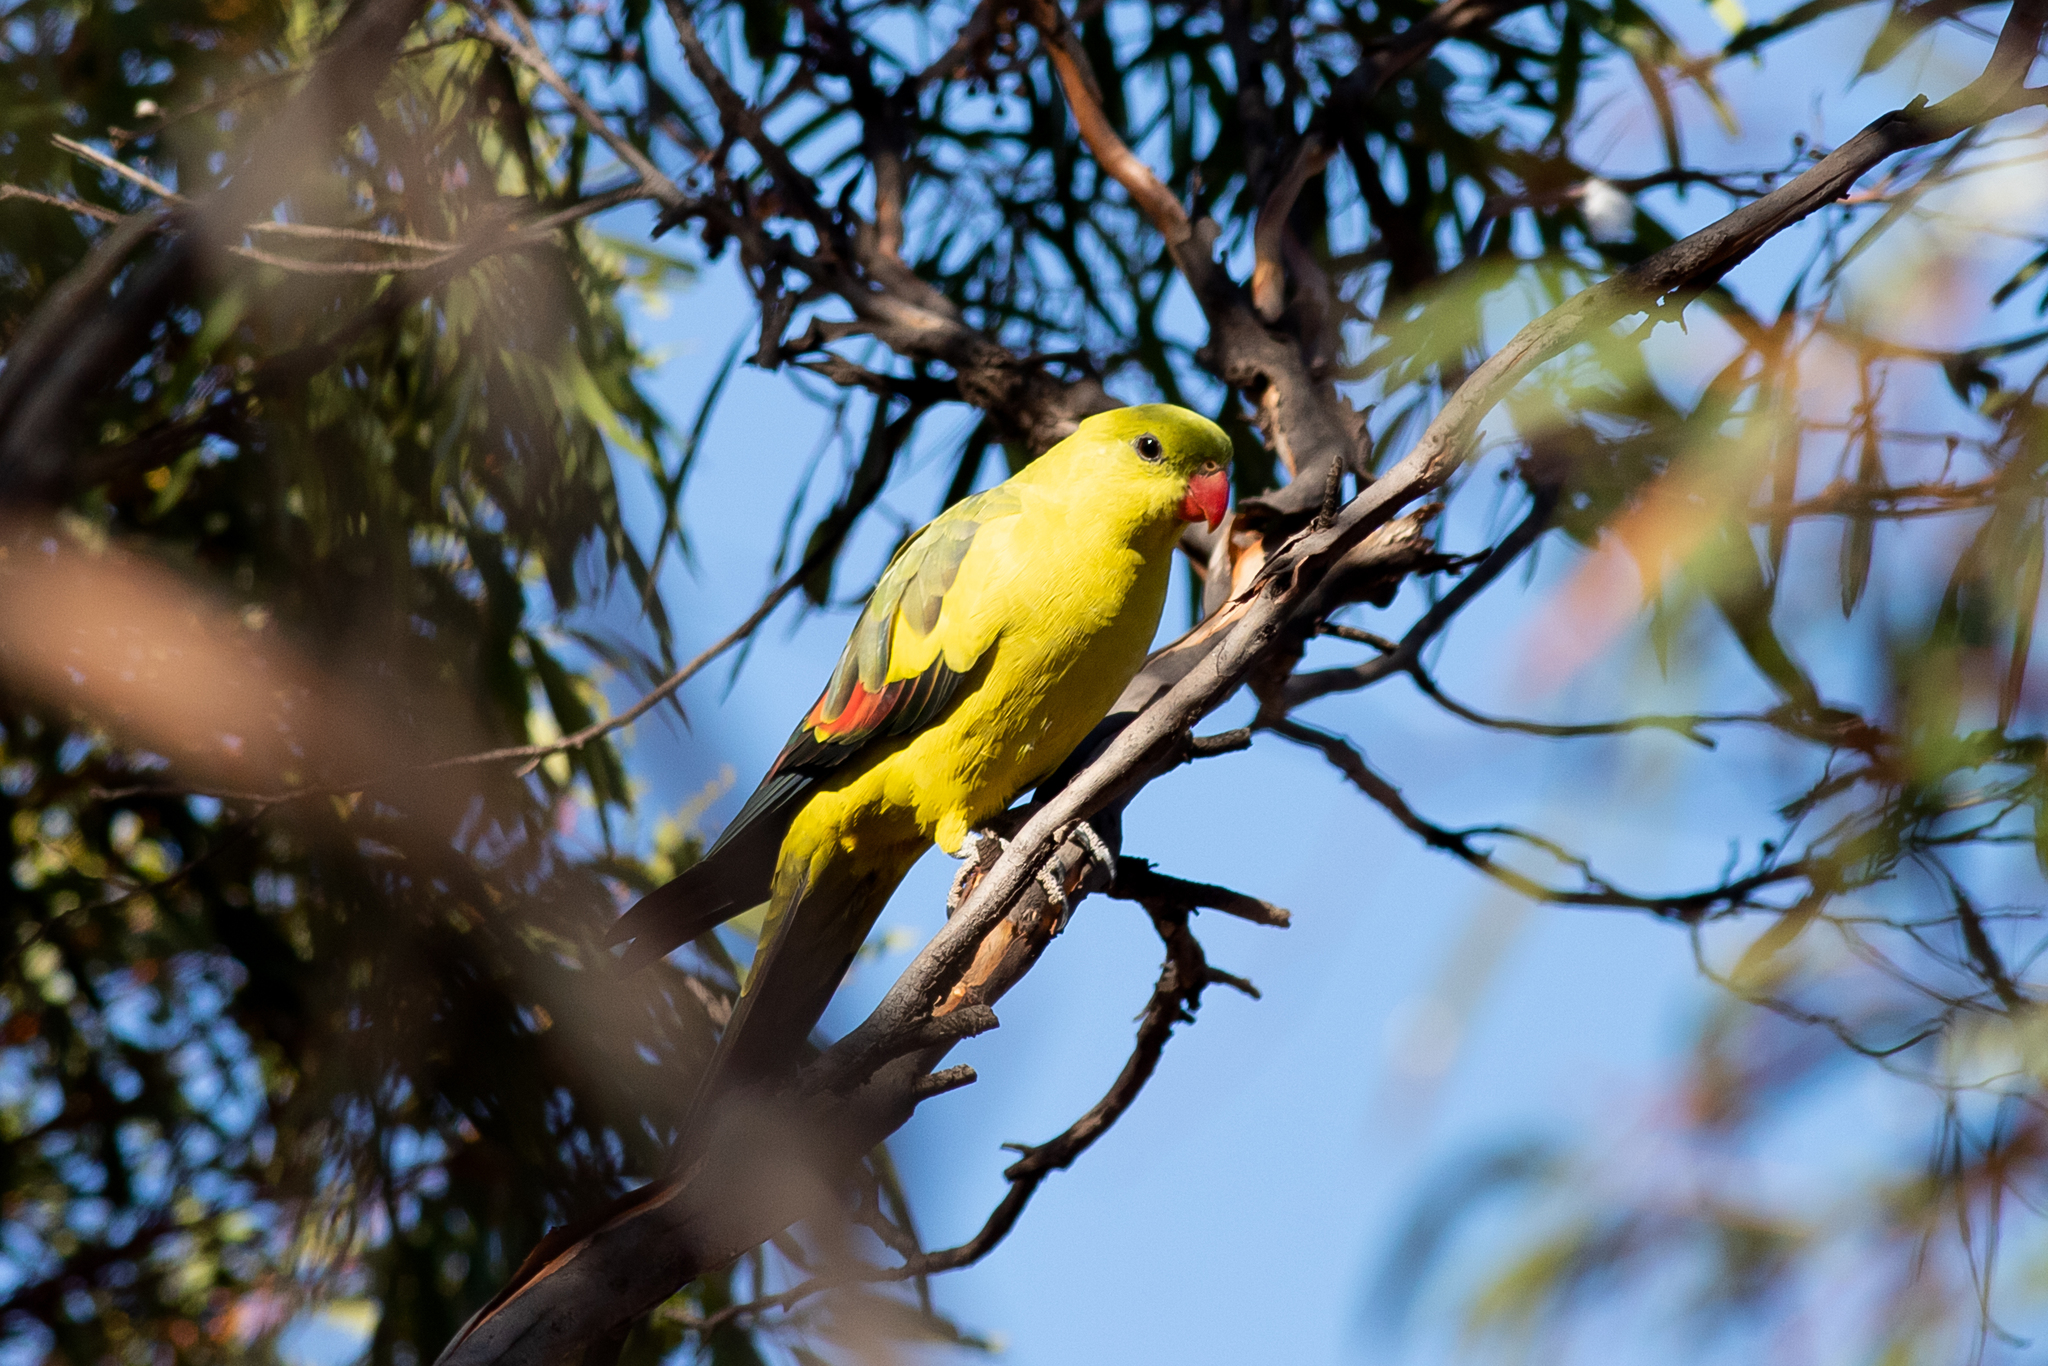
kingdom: Animalia
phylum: Chordata
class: Aves
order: Psittaciformes
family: Psittacidae
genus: Polytelis
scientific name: Polytelis anthopeplus
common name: Regent parrot
